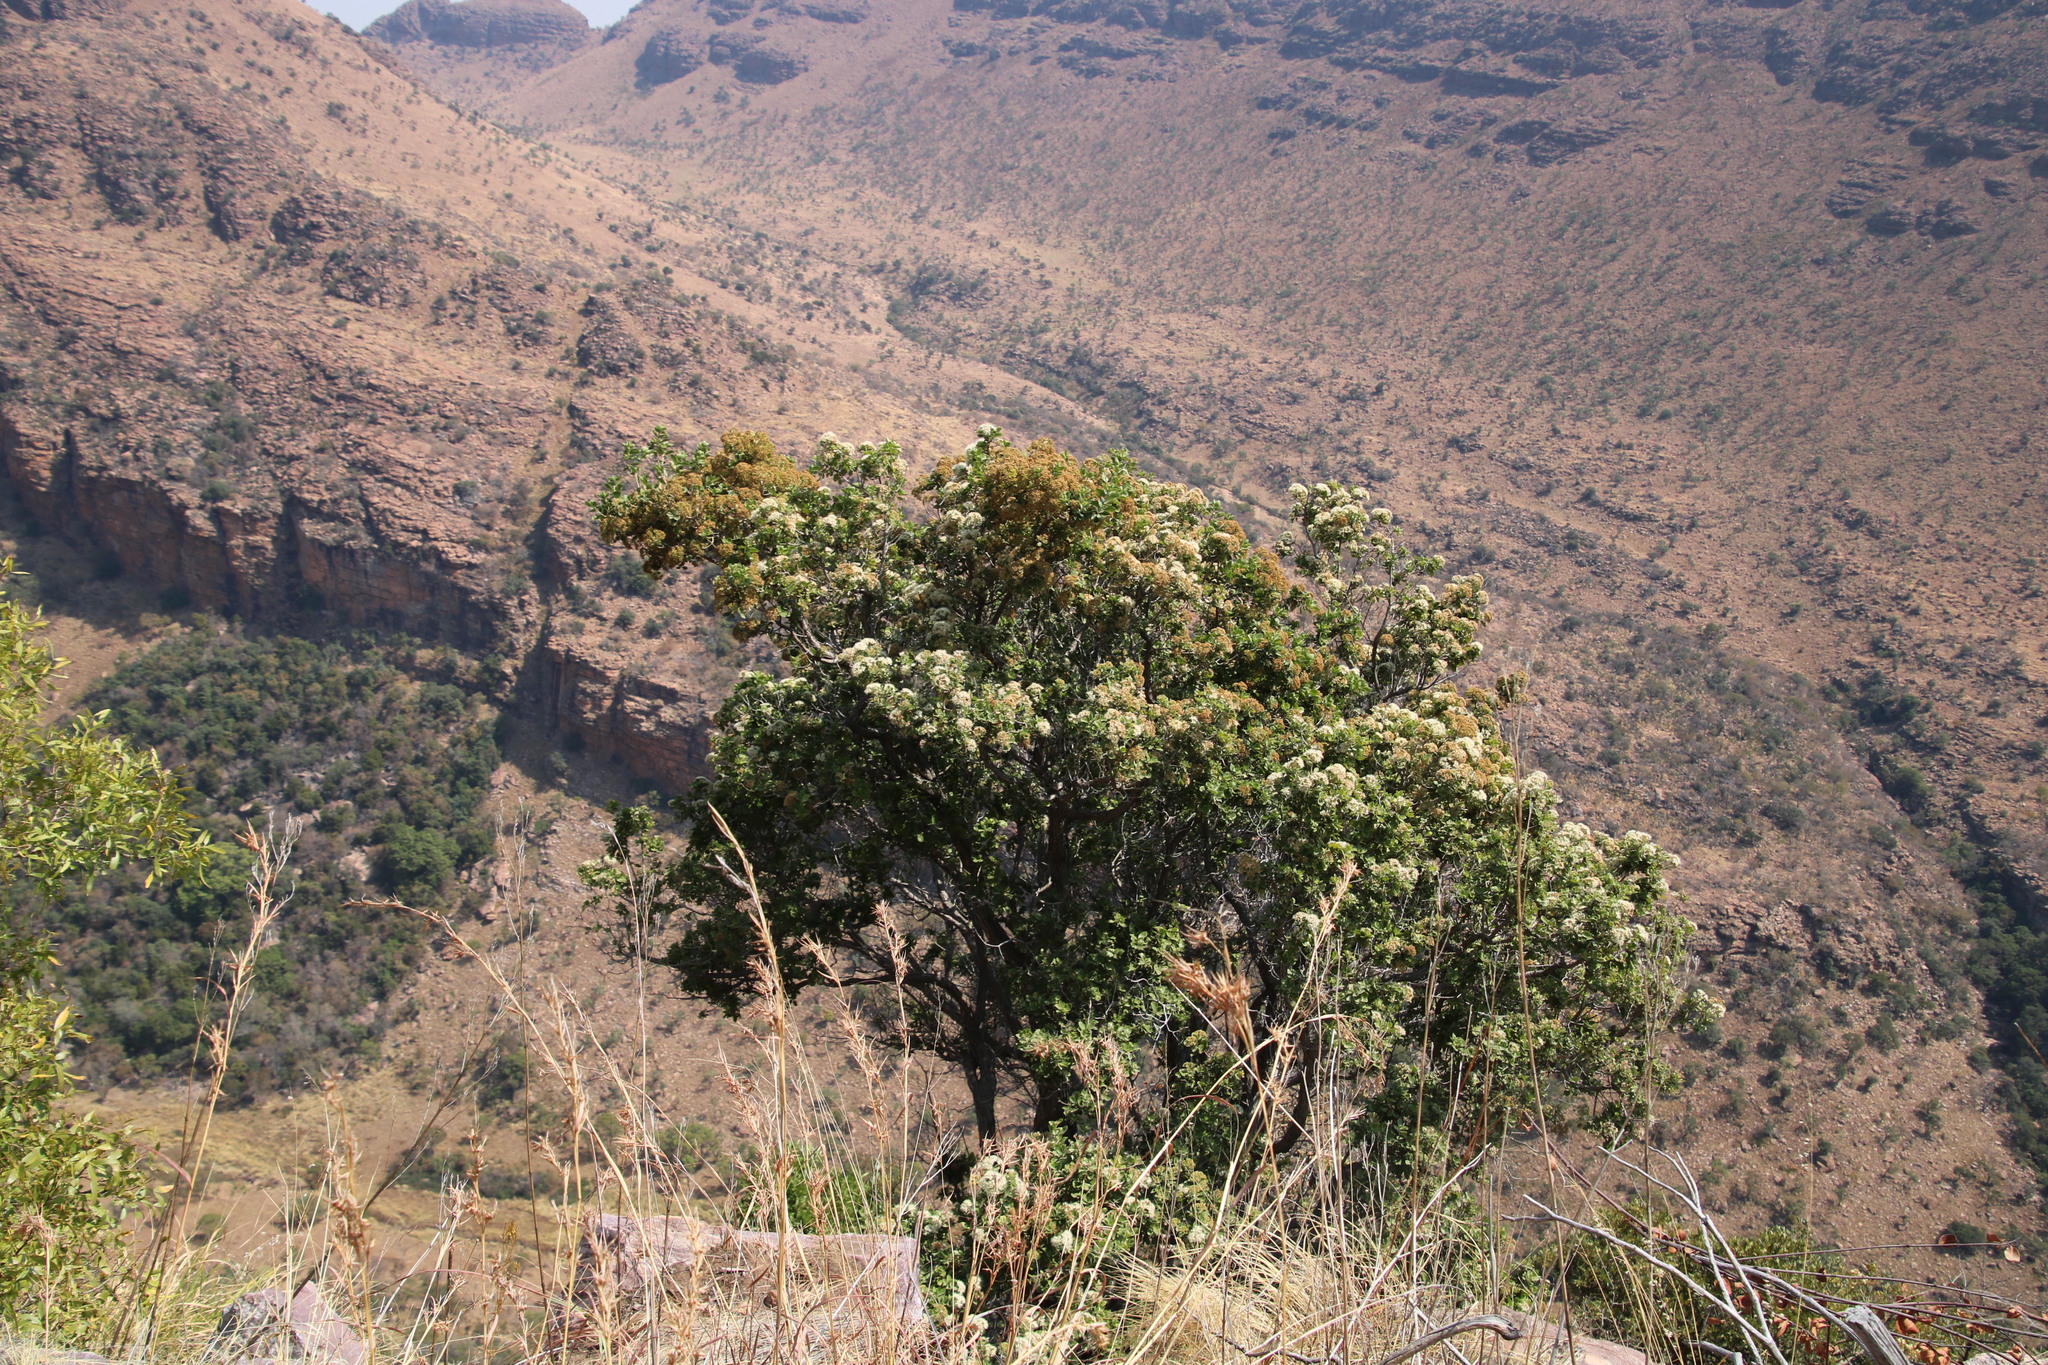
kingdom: Plantae
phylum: Tracheophyta
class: Magnoliopsida
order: Lamiales
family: Stilbaceae
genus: Nuxia
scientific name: Nuxia congesta
